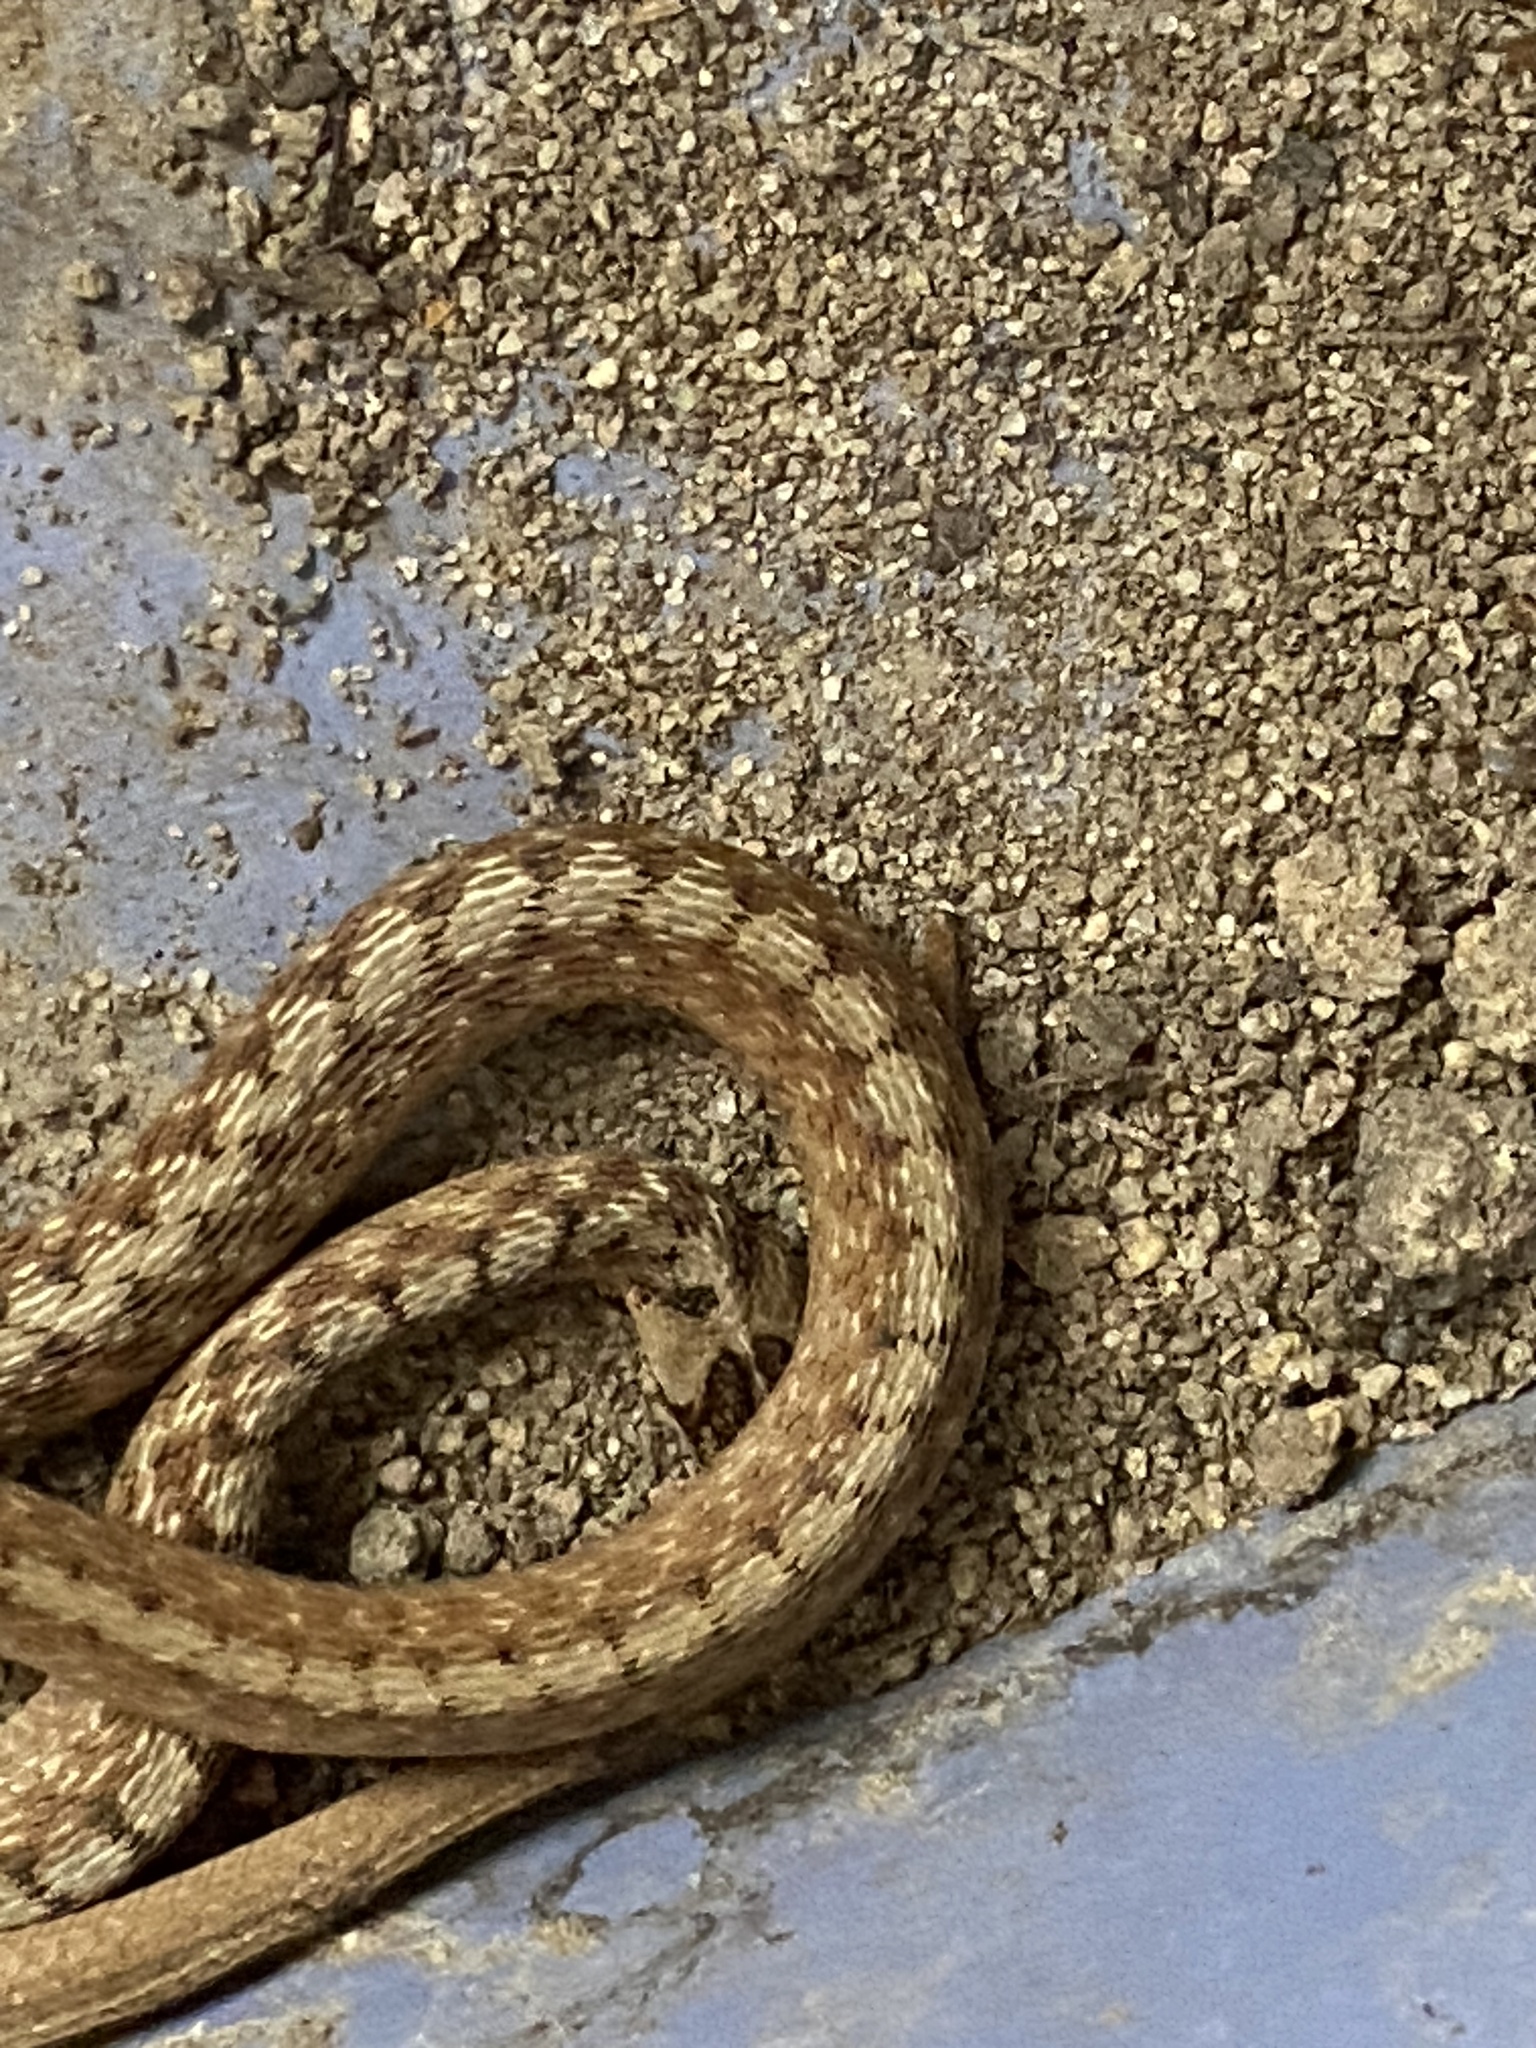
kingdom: Animalia
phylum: Chordata
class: Squamata
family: Colubridae
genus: Storeria
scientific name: Storeria dekayi
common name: (dekay’s) brown snake
